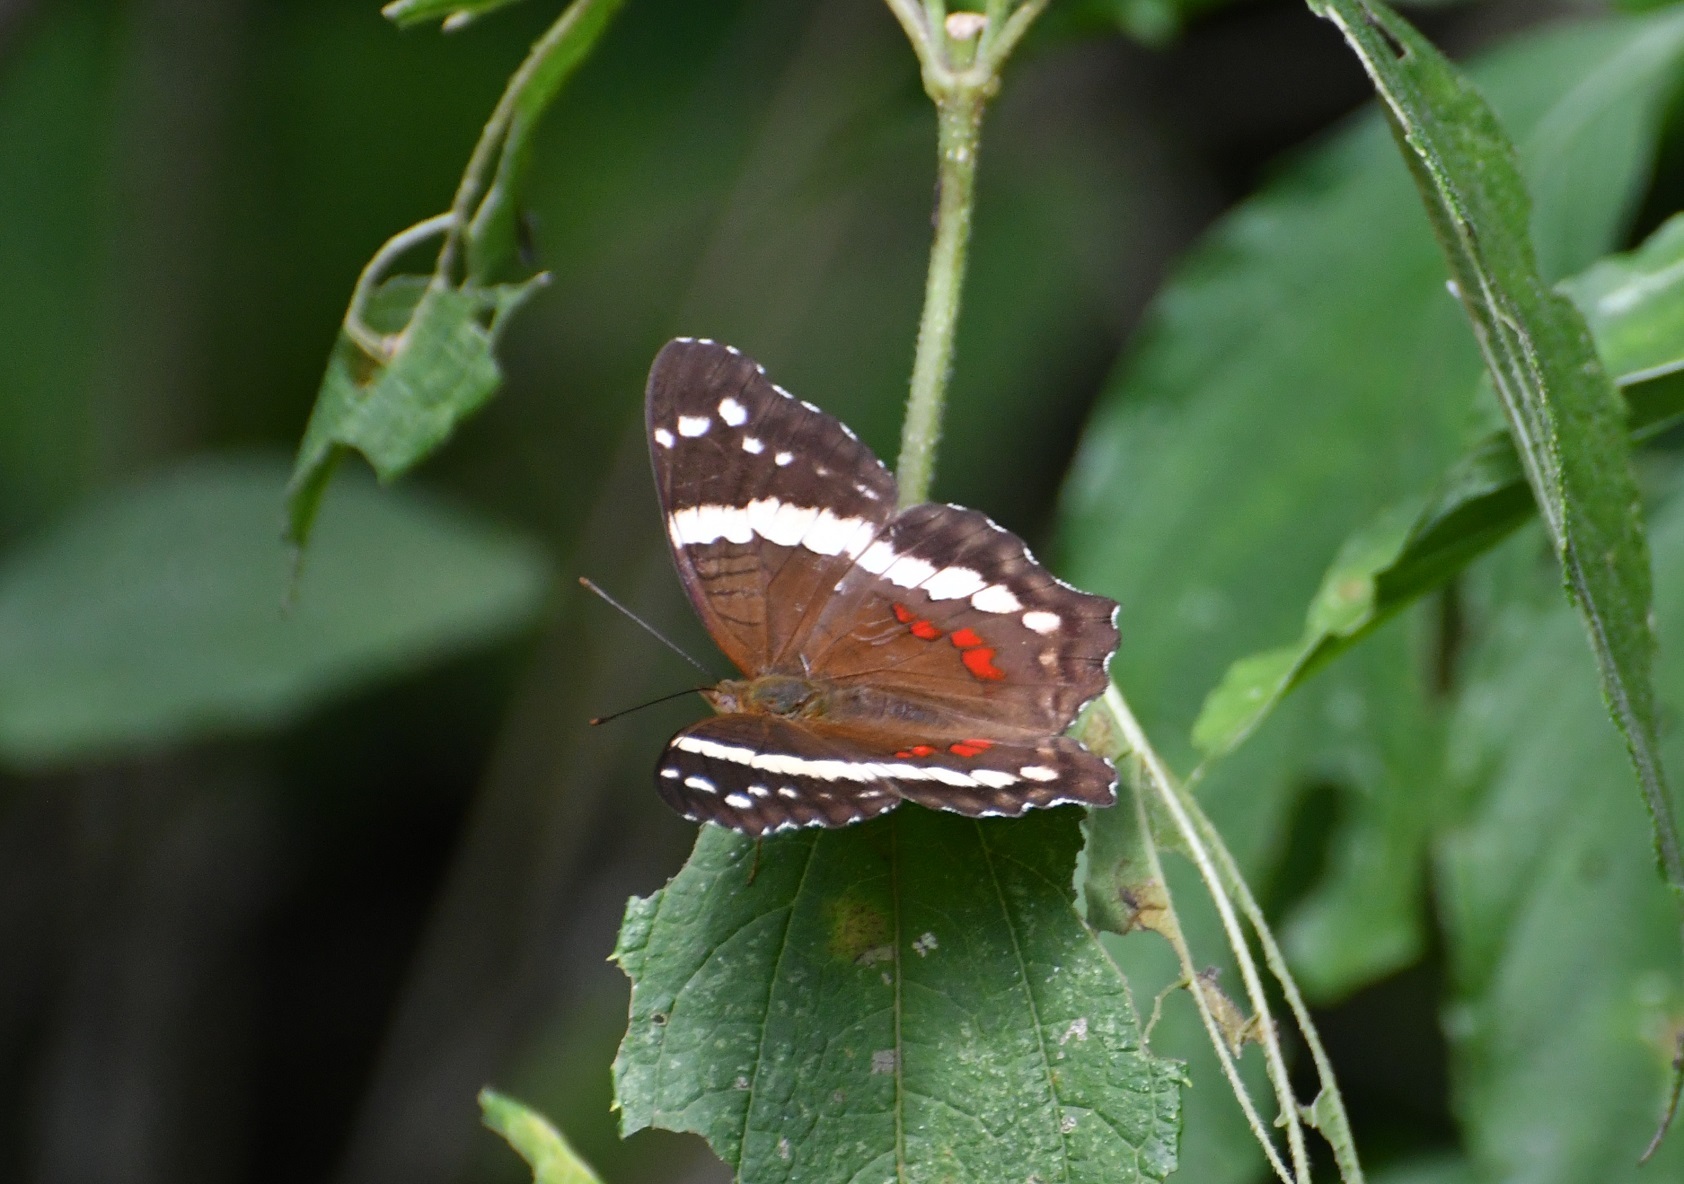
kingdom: Animalia
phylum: Arthropoda
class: Insecta
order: Lepidoptera
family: Nymphalidae
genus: Anartia
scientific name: Anartia fatima
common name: Banded peacock
